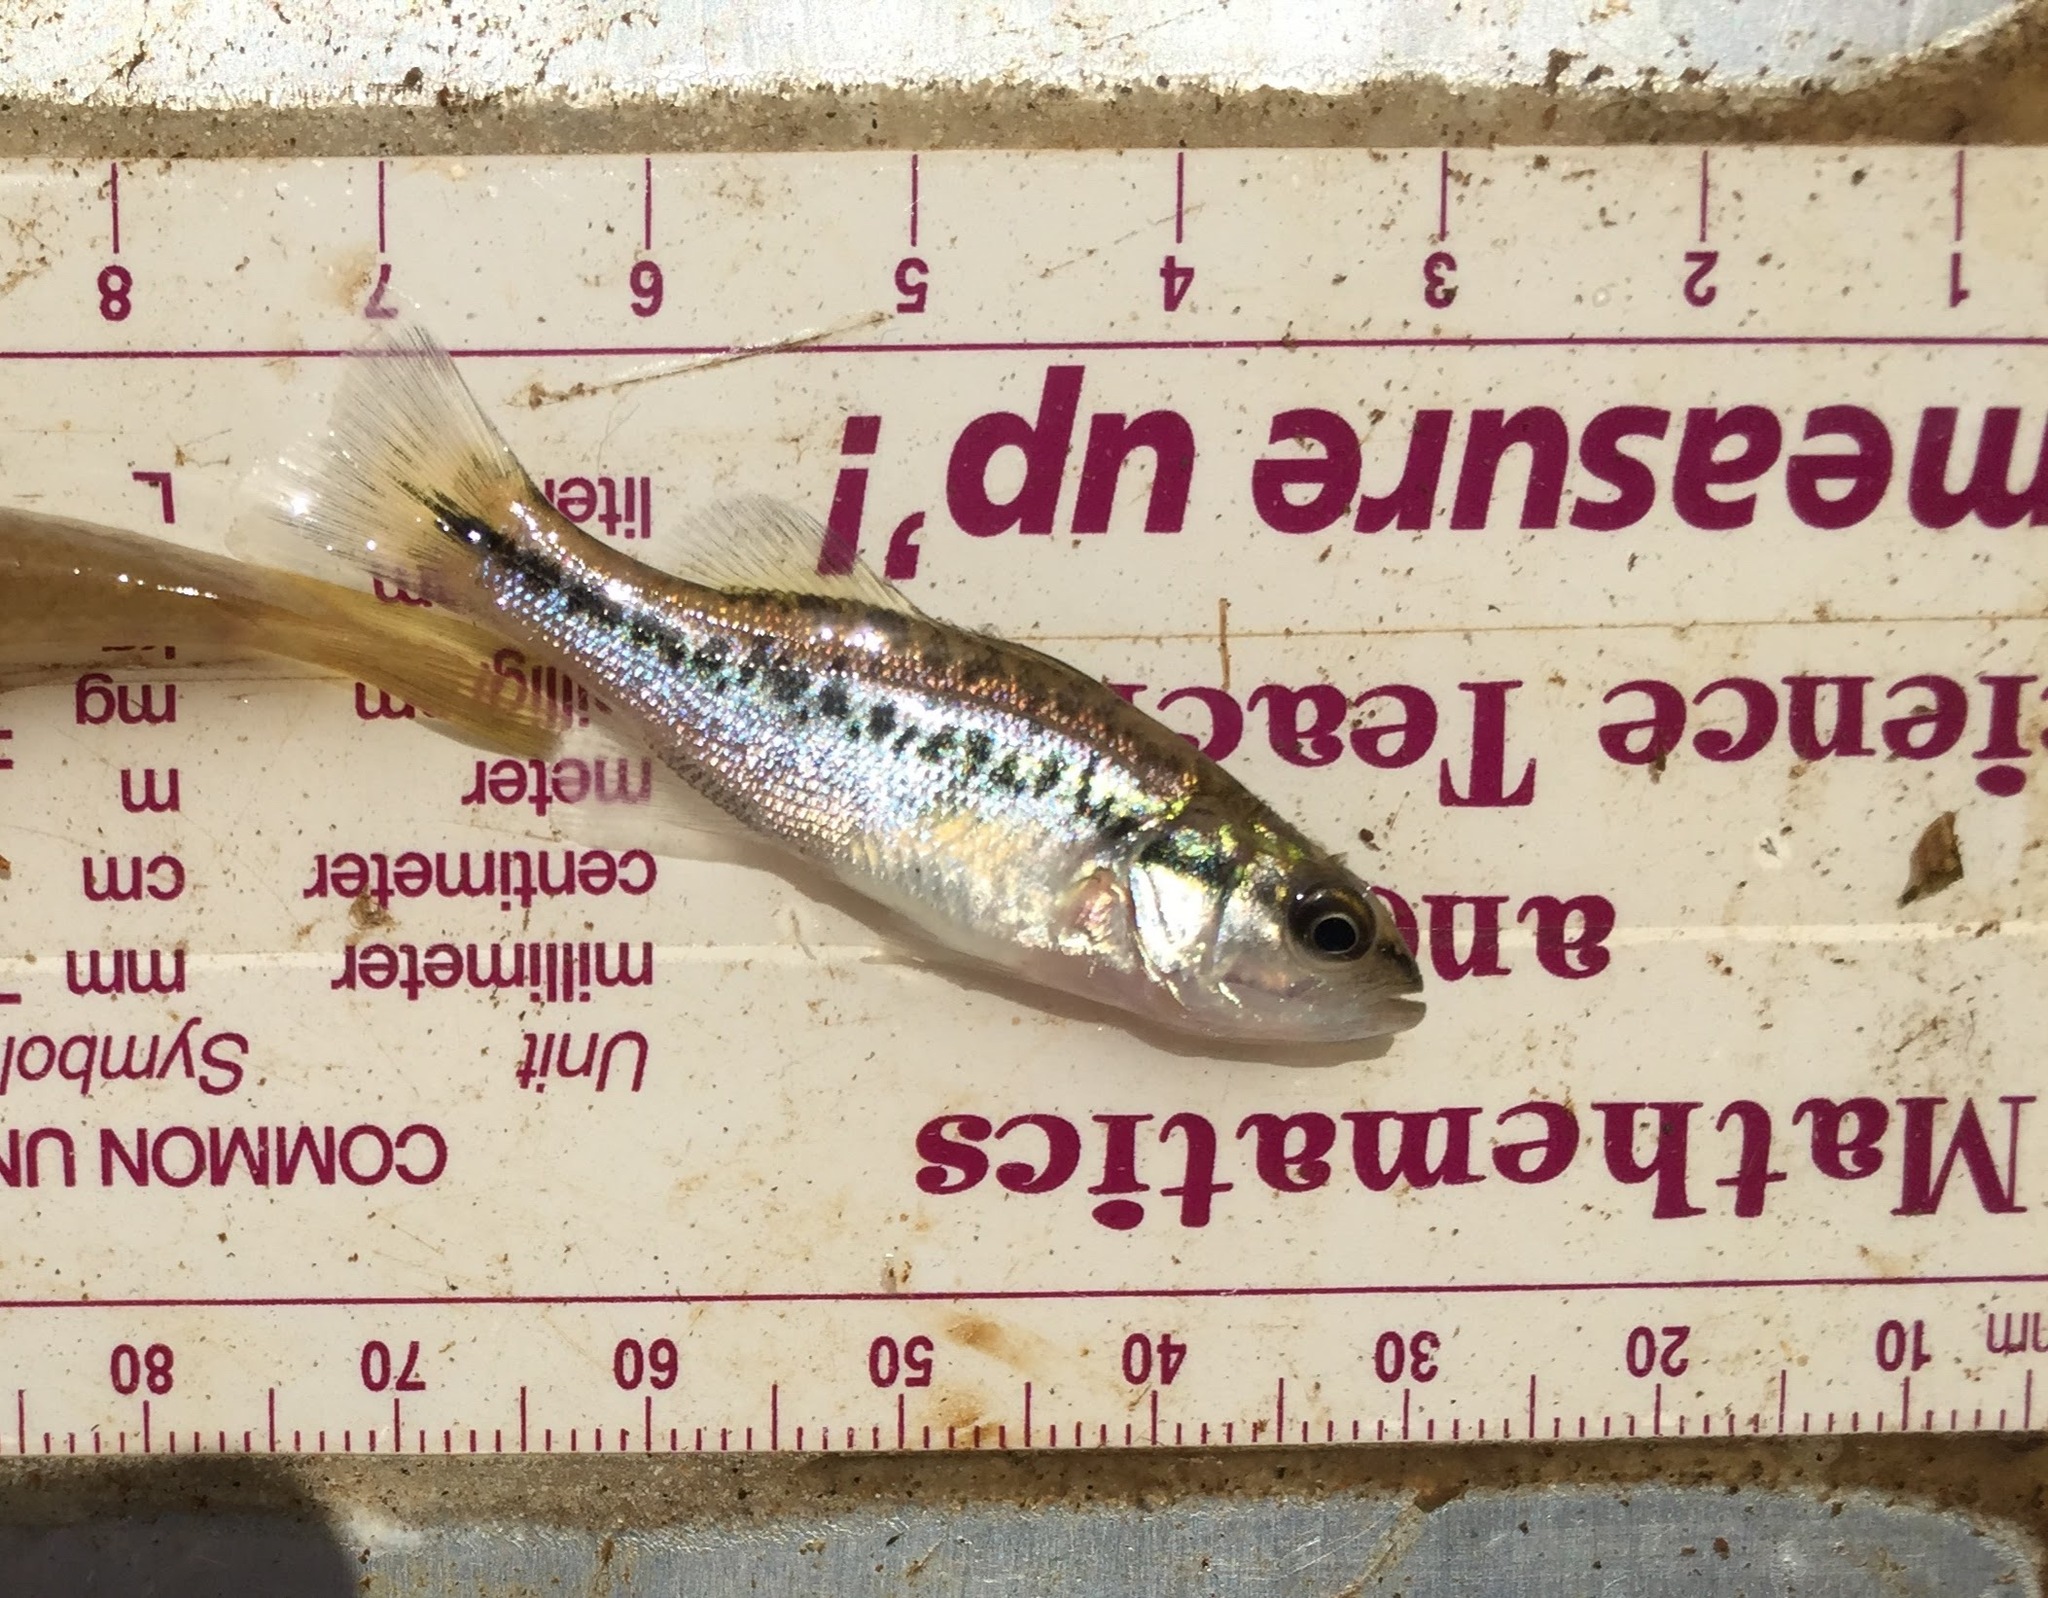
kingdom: Animalia
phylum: Chordata
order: Perciformes
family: Centrarchidae
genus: Micropterus
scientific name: Micropterus
